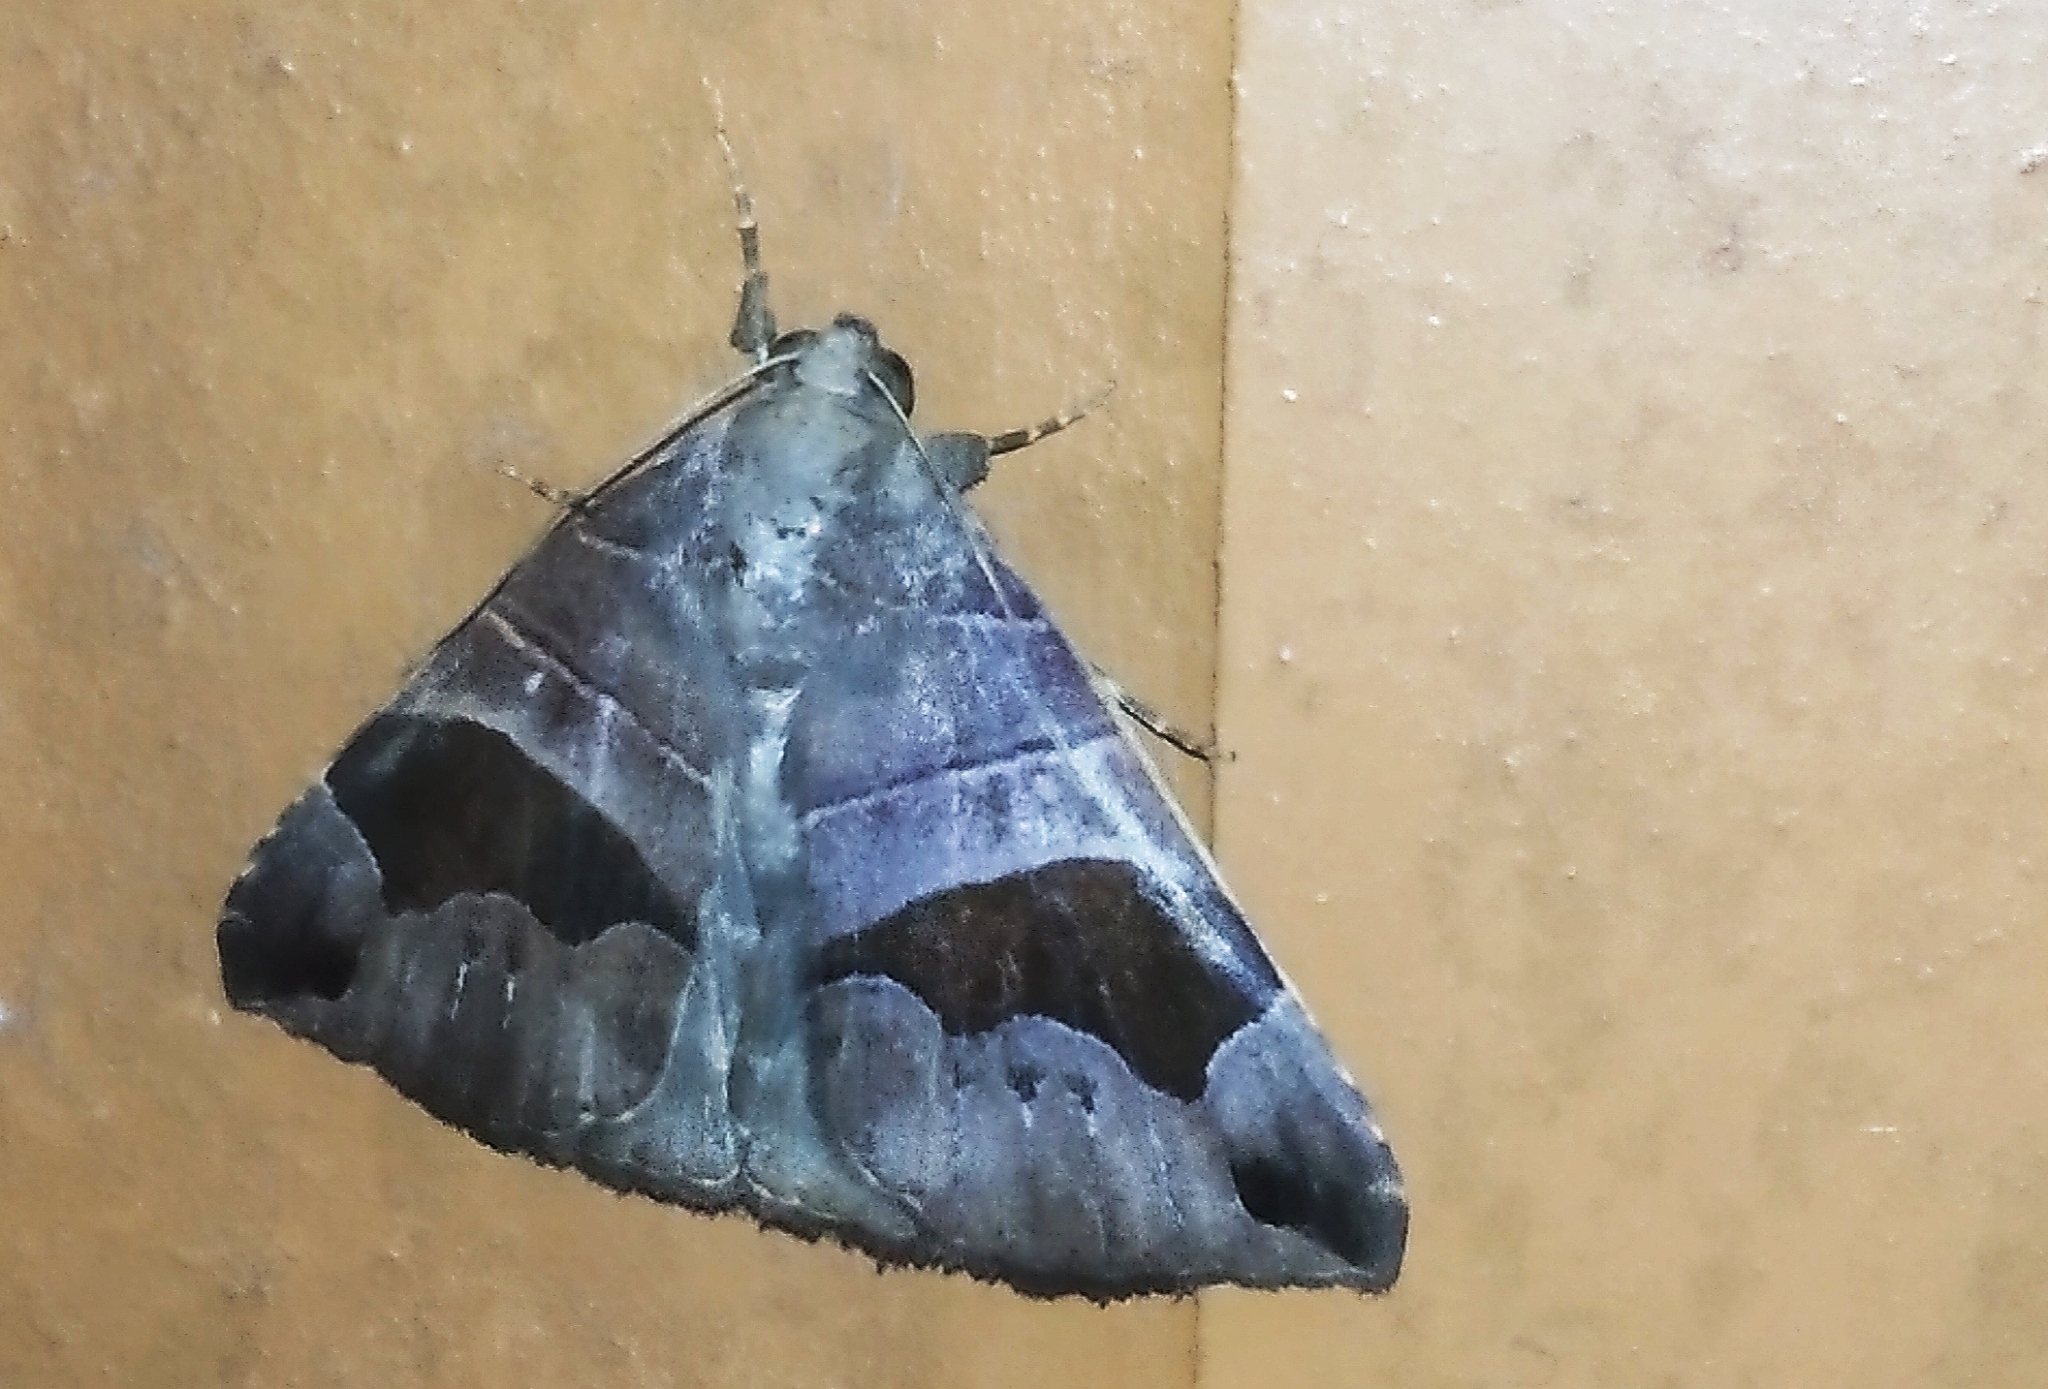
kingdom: Animalia
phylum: Arthropoda
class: Insecta
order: Lepidoptera
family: Erebidae
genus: Bastilla
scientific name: Bastilla joviana
